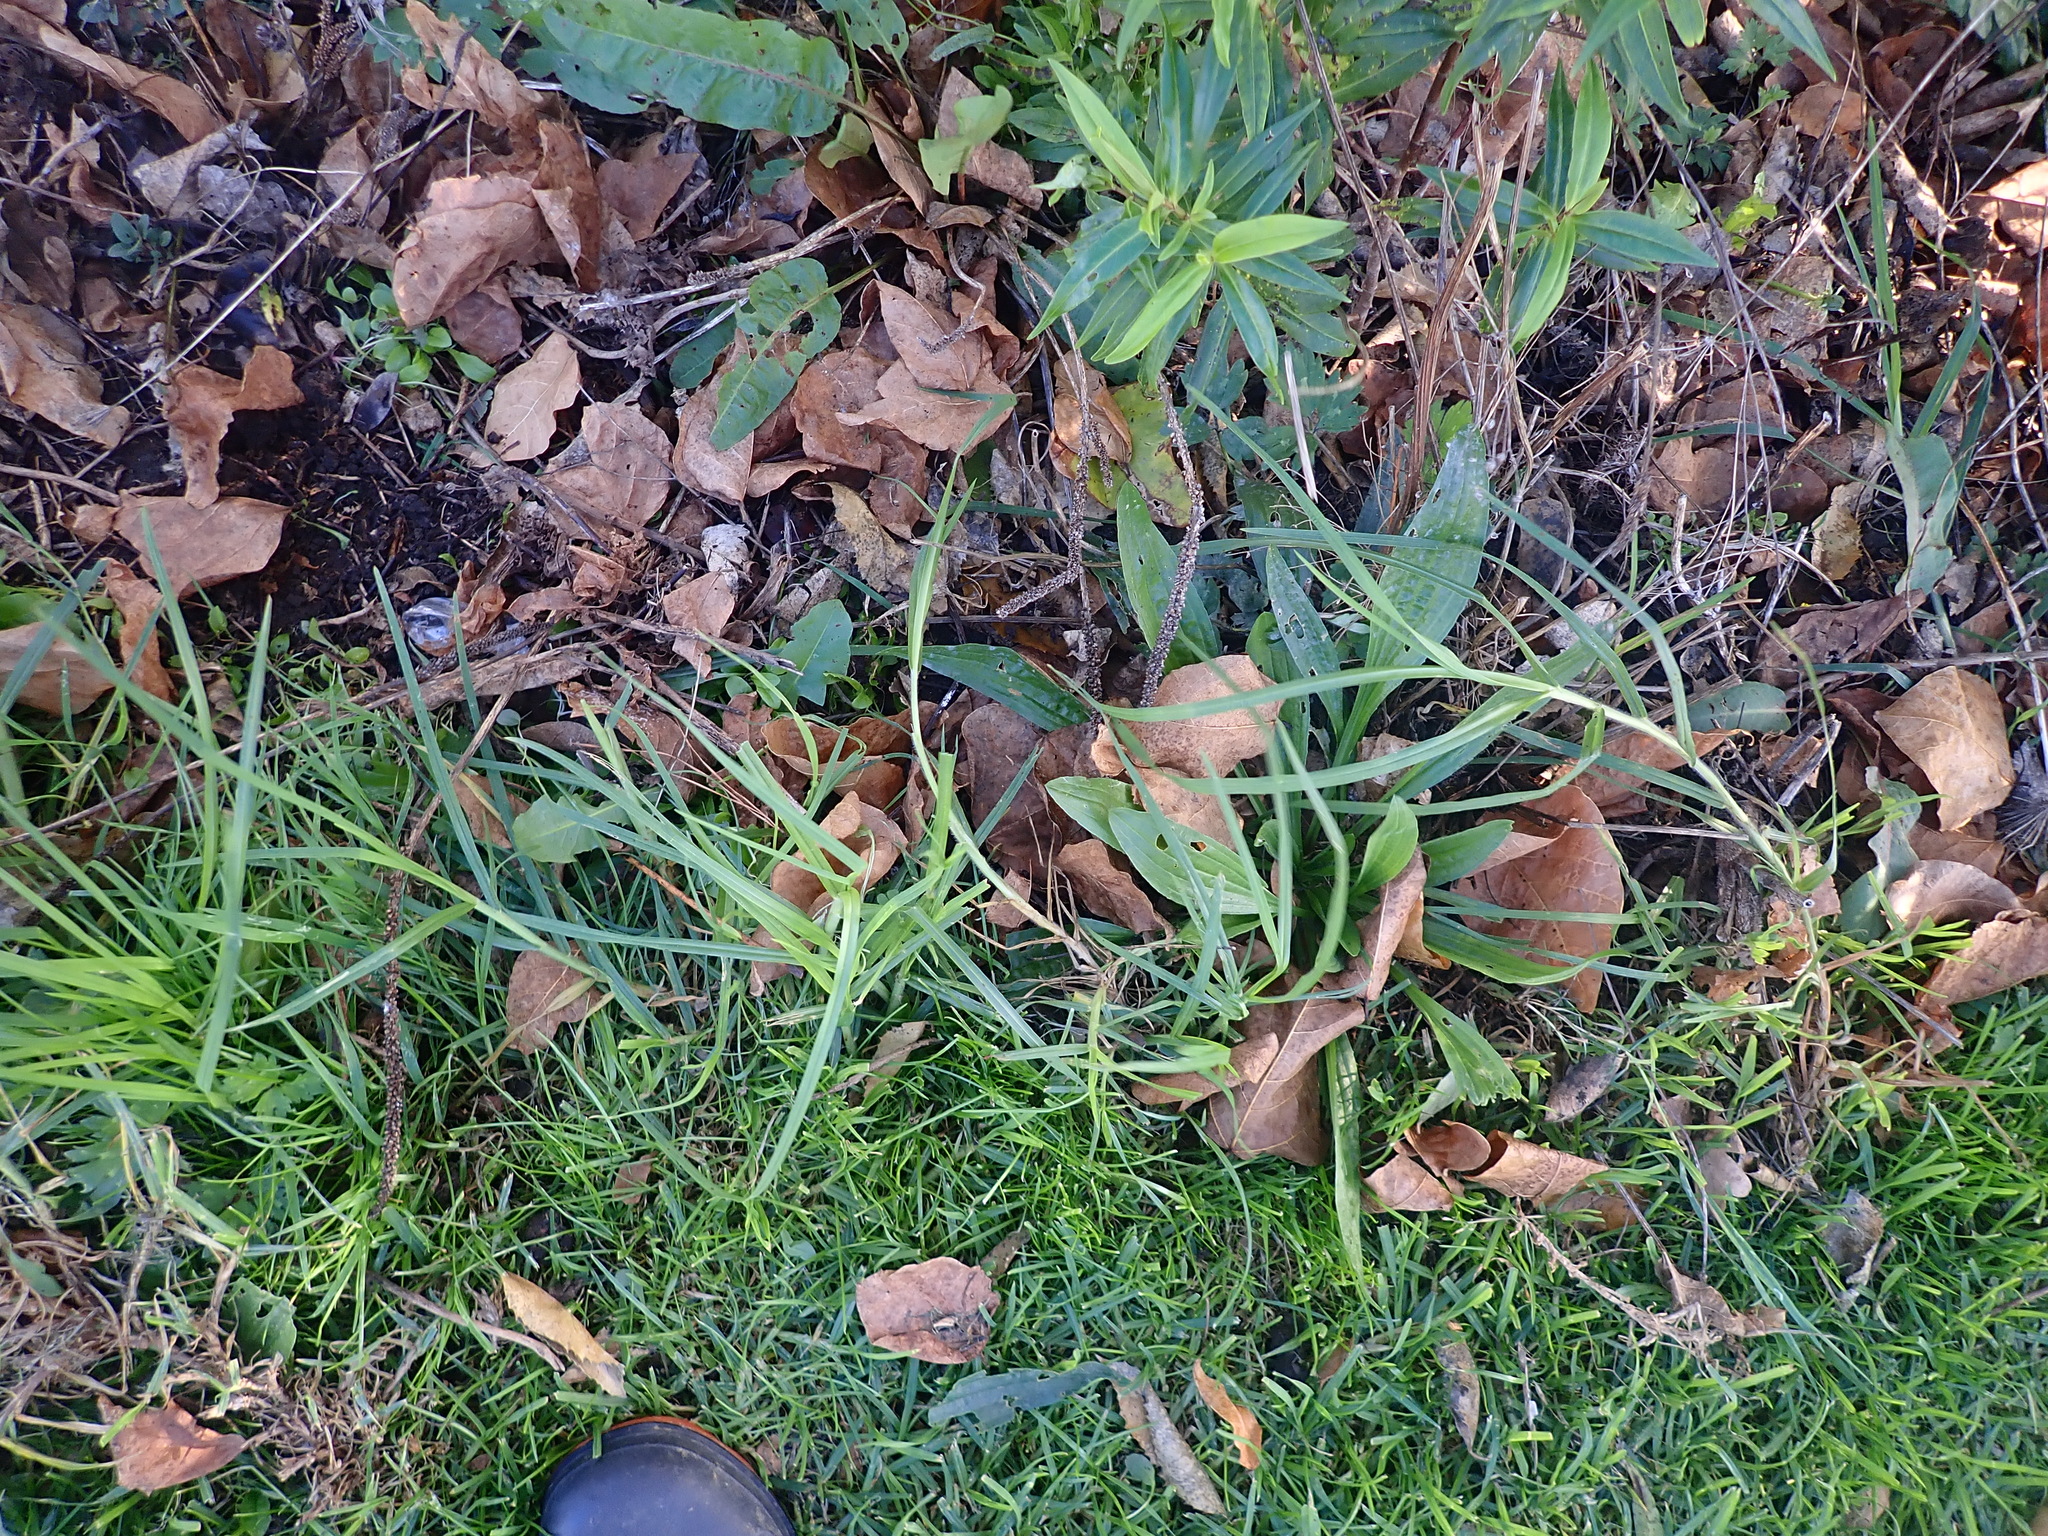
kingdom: Plantae
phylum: Tracheophyta
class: Magnoliopsida
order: Lamiales
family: Plantaginaceae
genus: Plantago
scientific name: Plantago lanceolata
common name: Ribwort plantain
